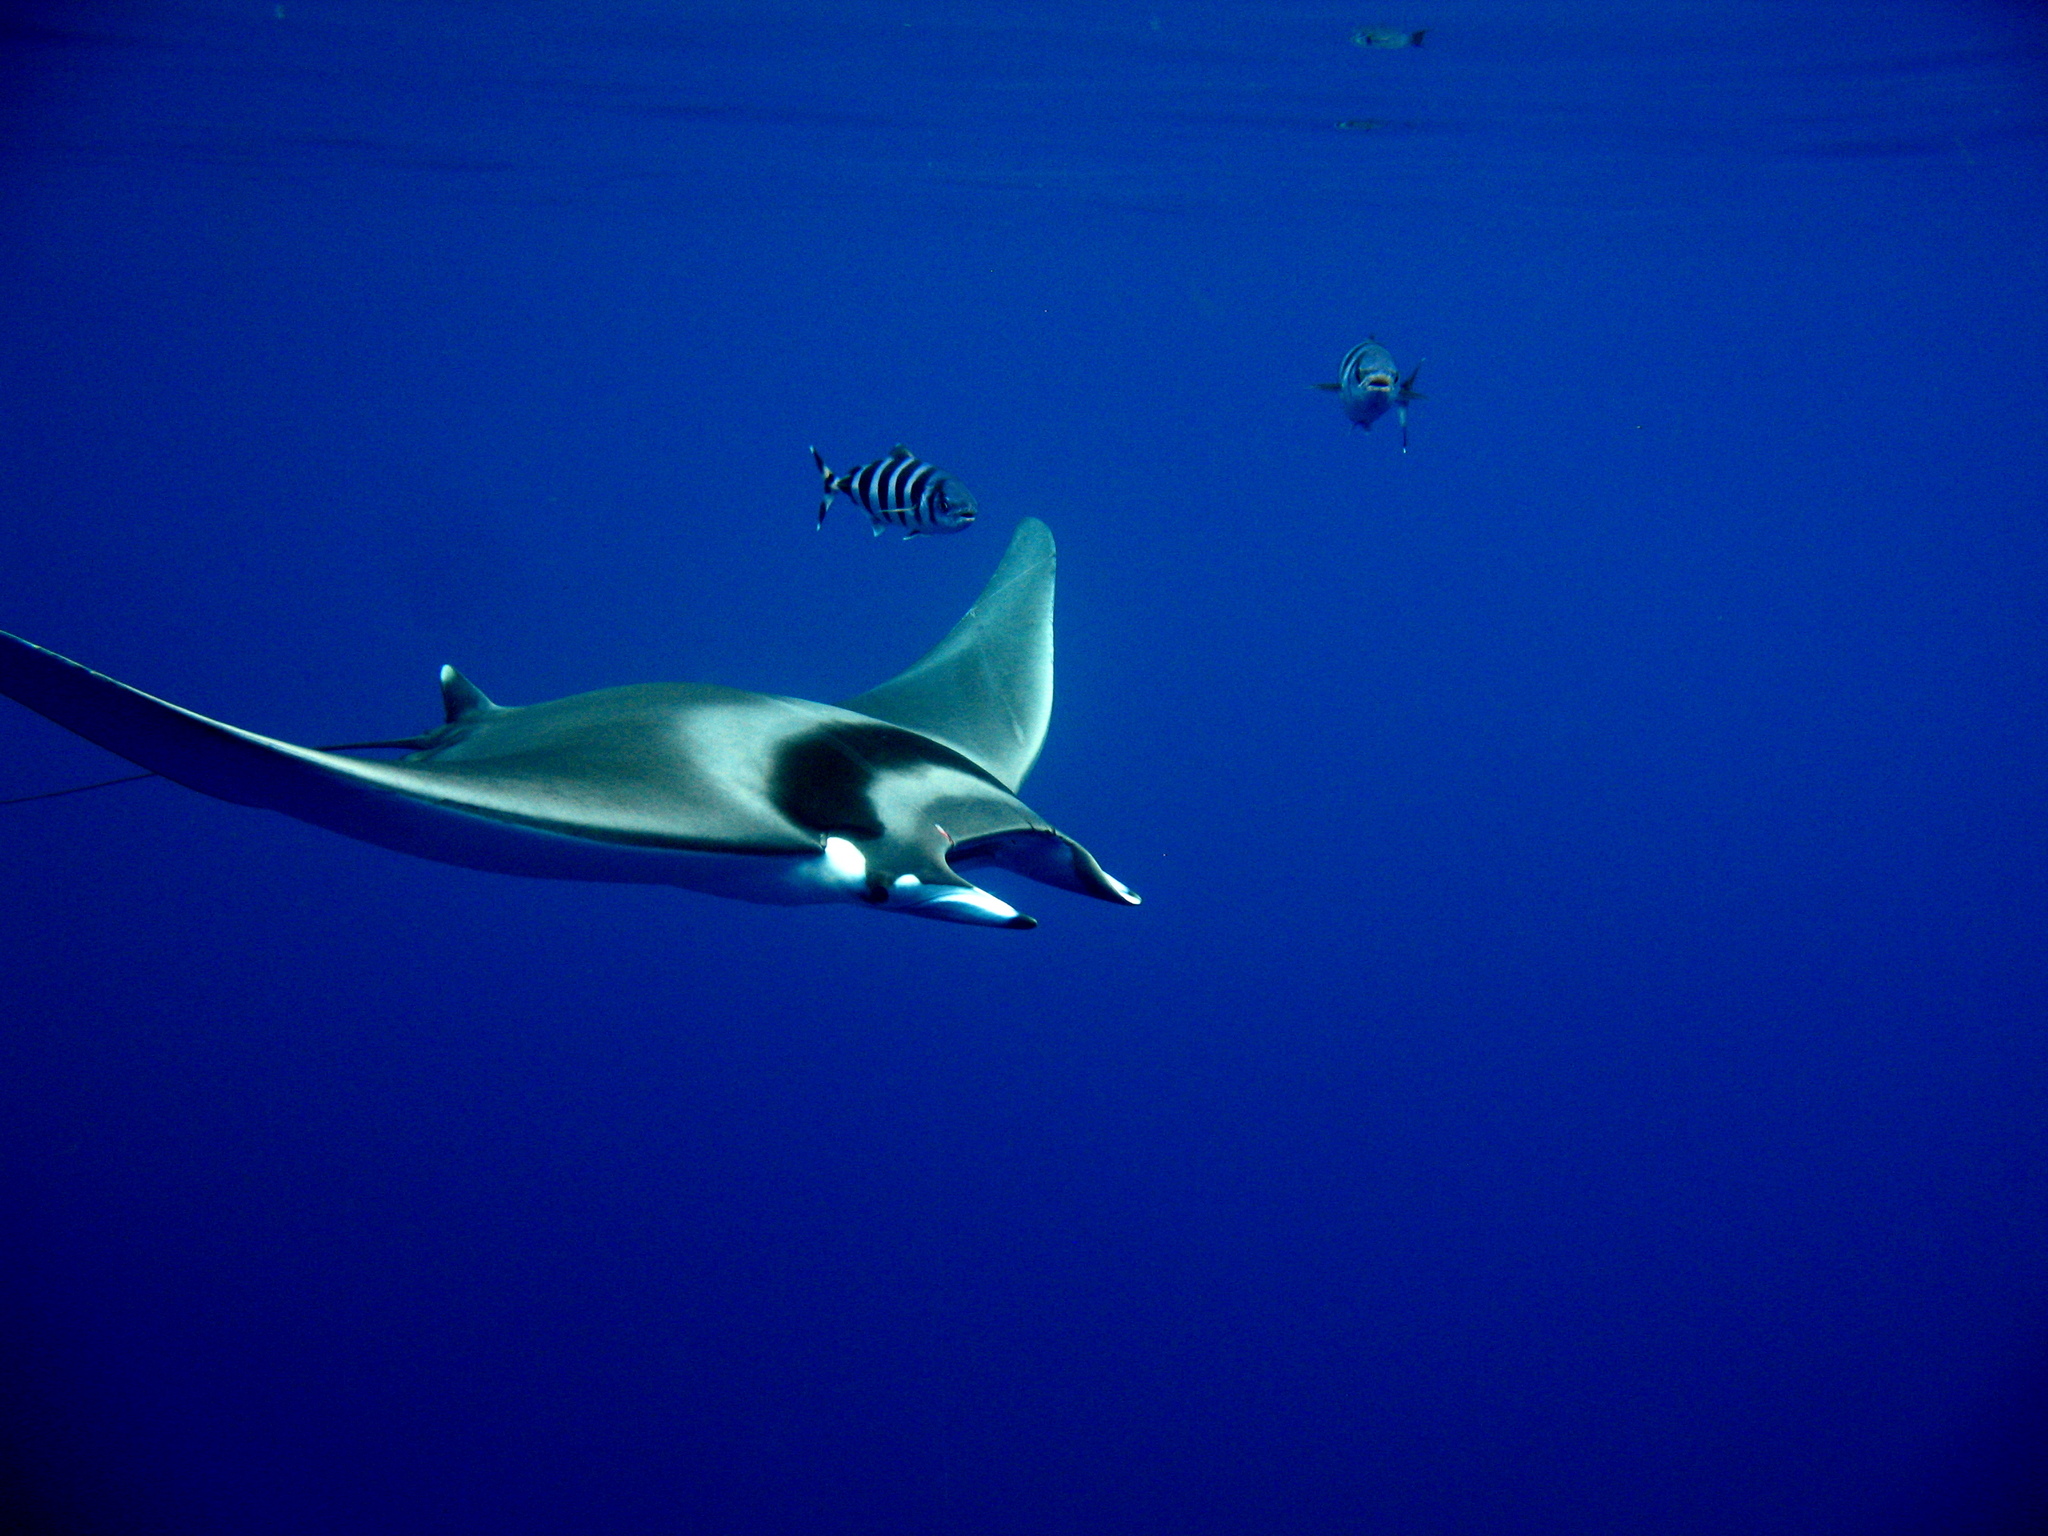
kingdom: Animalia
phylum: Chordata
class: Elasmobranchii
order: Myliobatiformes
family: Myliobatidae
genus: Mobula
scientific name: Mobula mobular
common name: Devil ray
